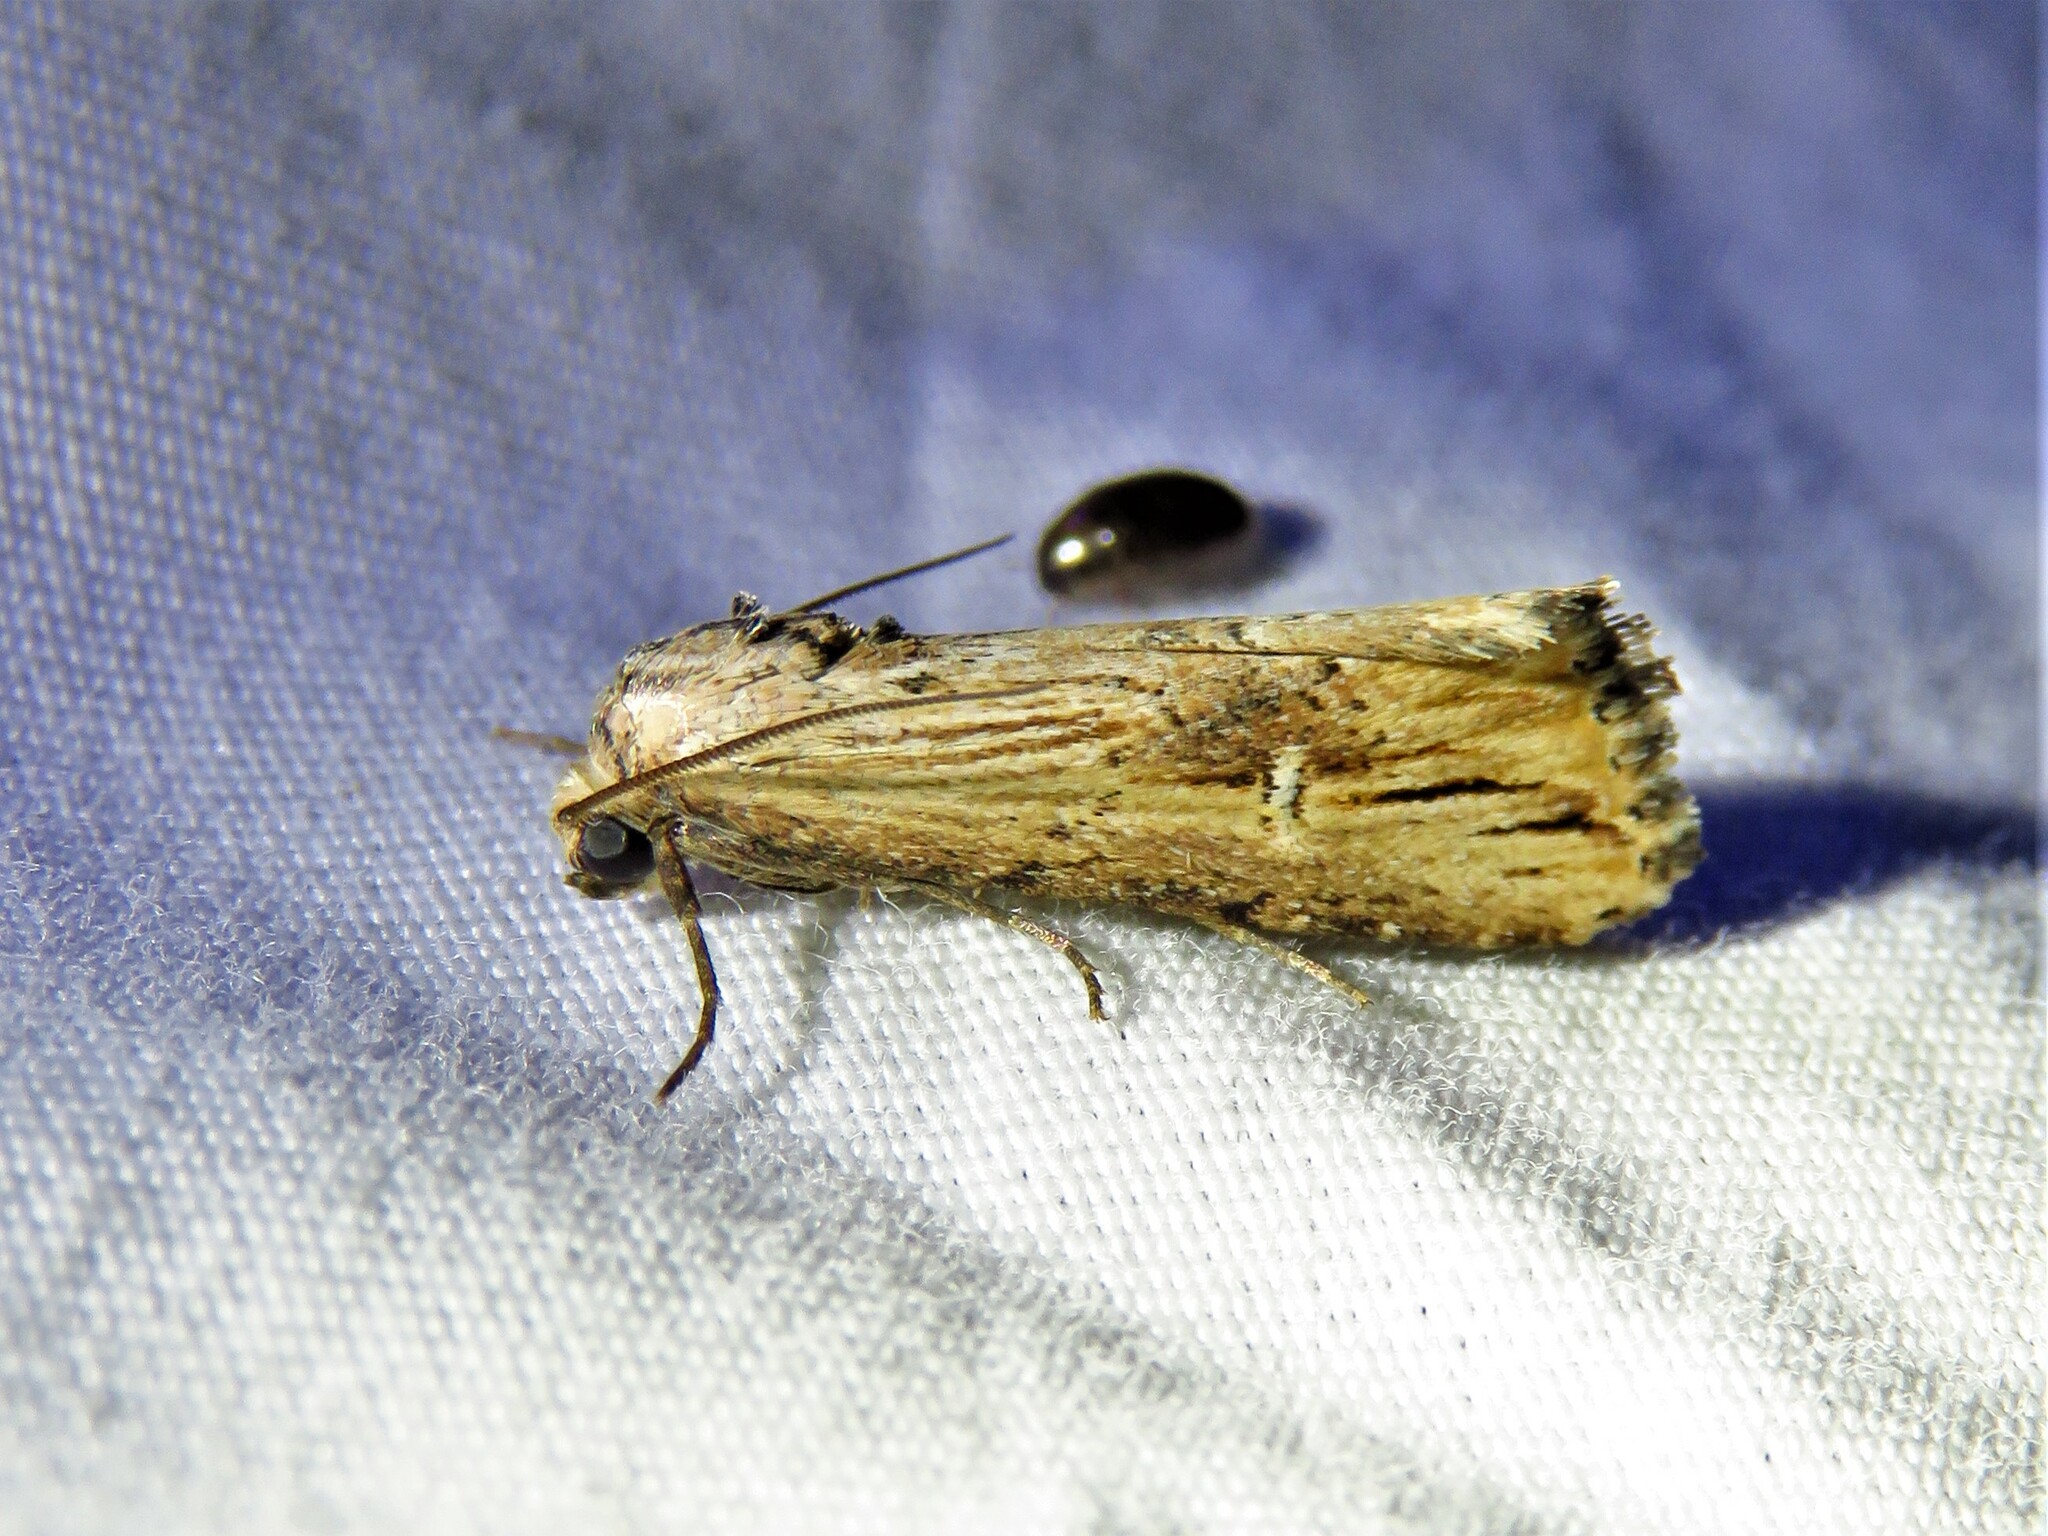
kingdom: Animalia
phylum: Arthropoda
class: Insecta
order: Lepidoptera
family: Noctuidae
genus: Crambodes
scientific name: Crambodes talidiformis
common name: Verbena moth
